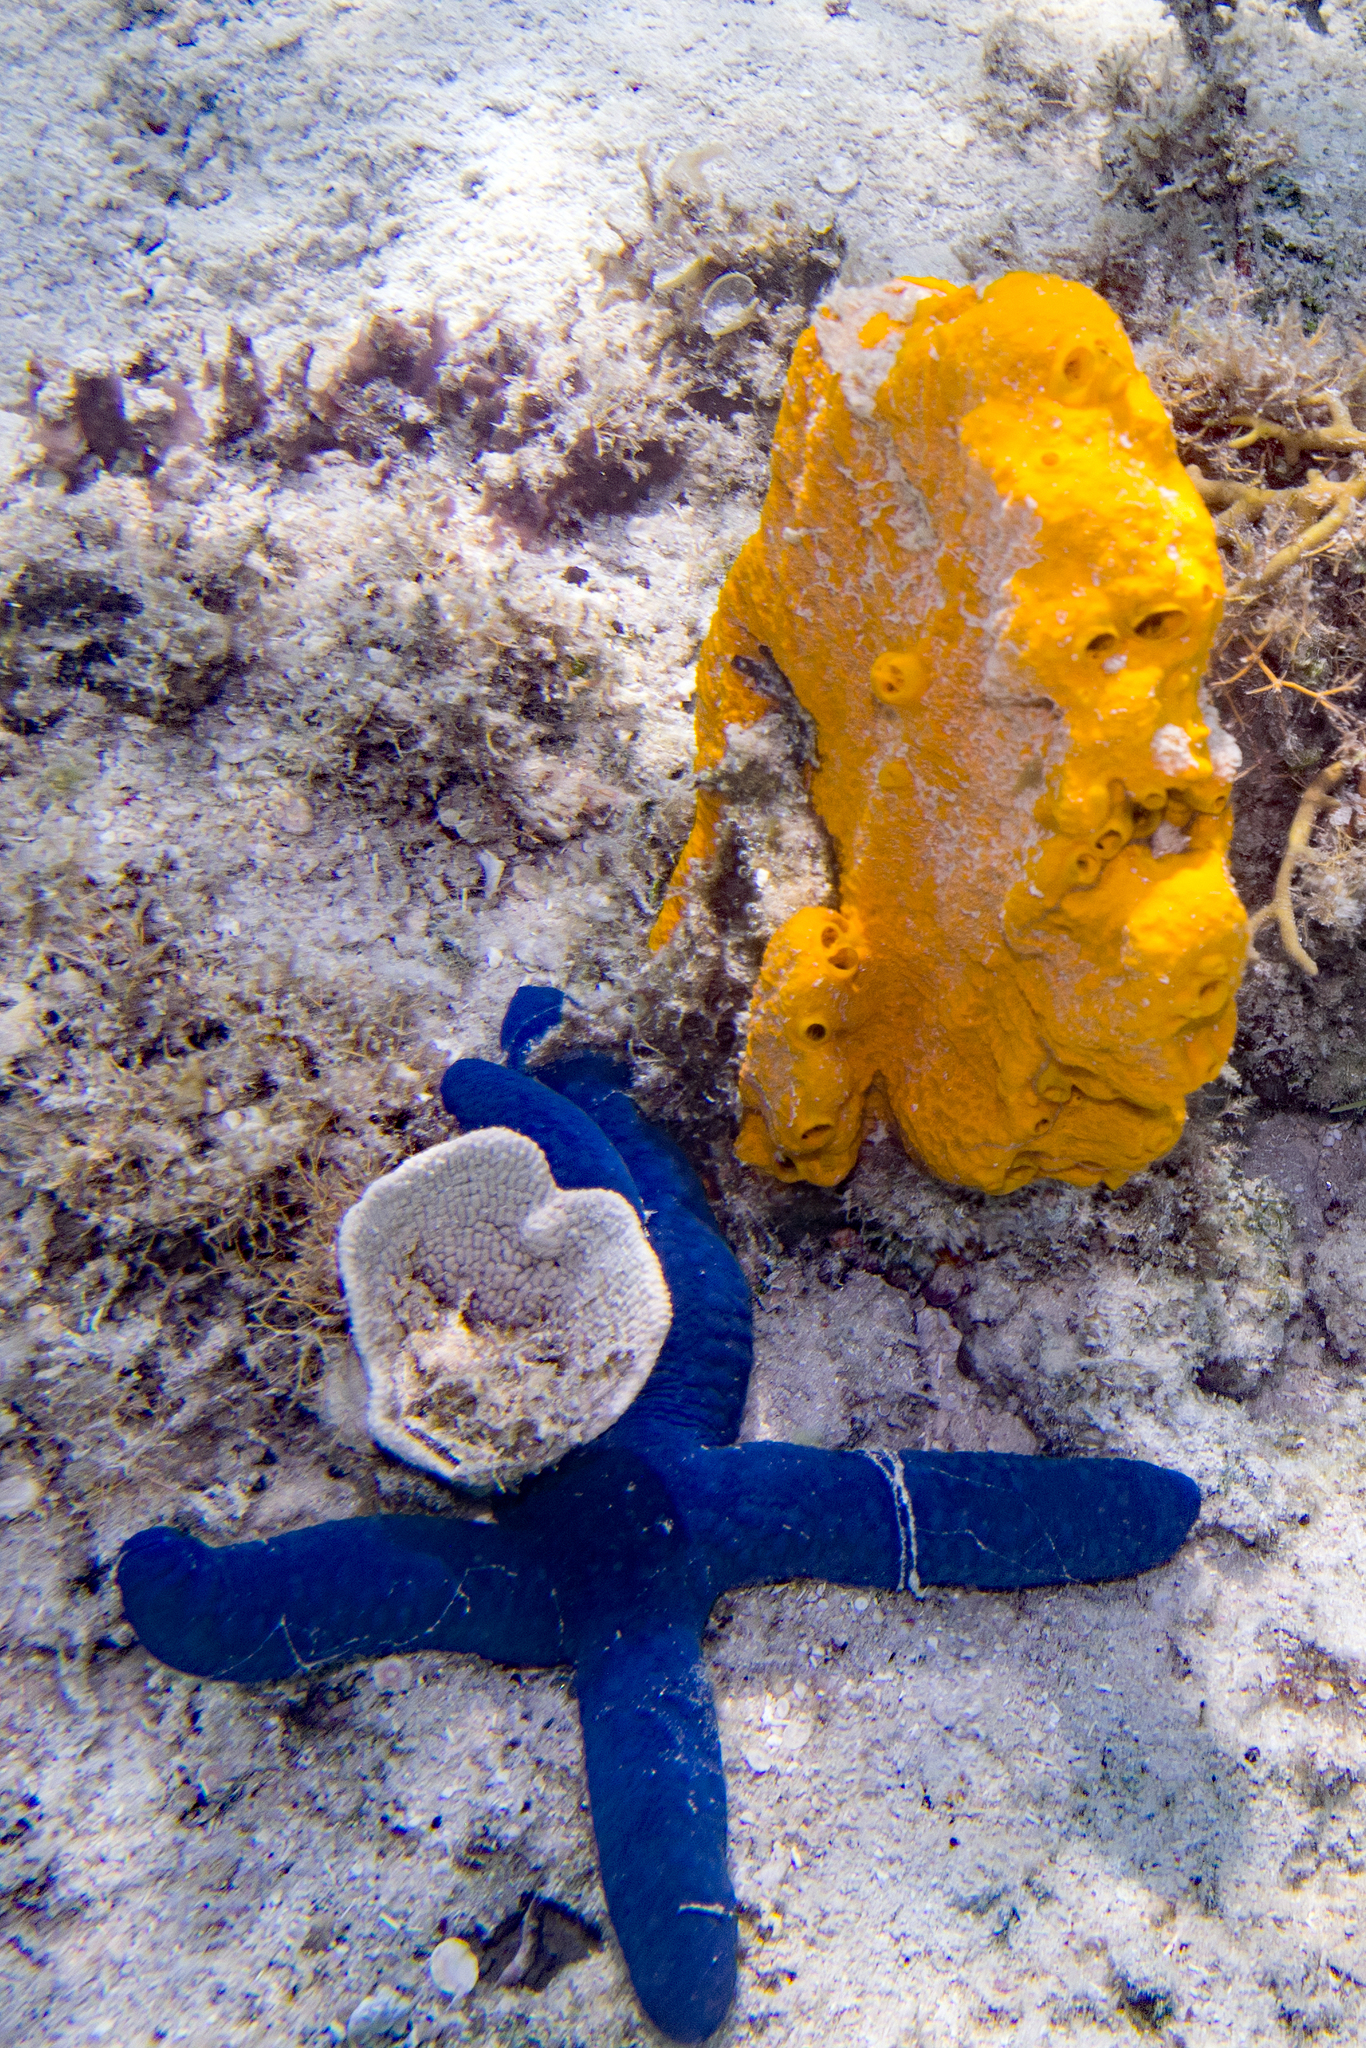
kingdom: Animalia
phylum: Echinodermata
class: Asteroidea
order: Valvatida
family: Ophidiasteridae
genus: Linckia
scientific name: Linckia laevigata
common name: Azure sea star
